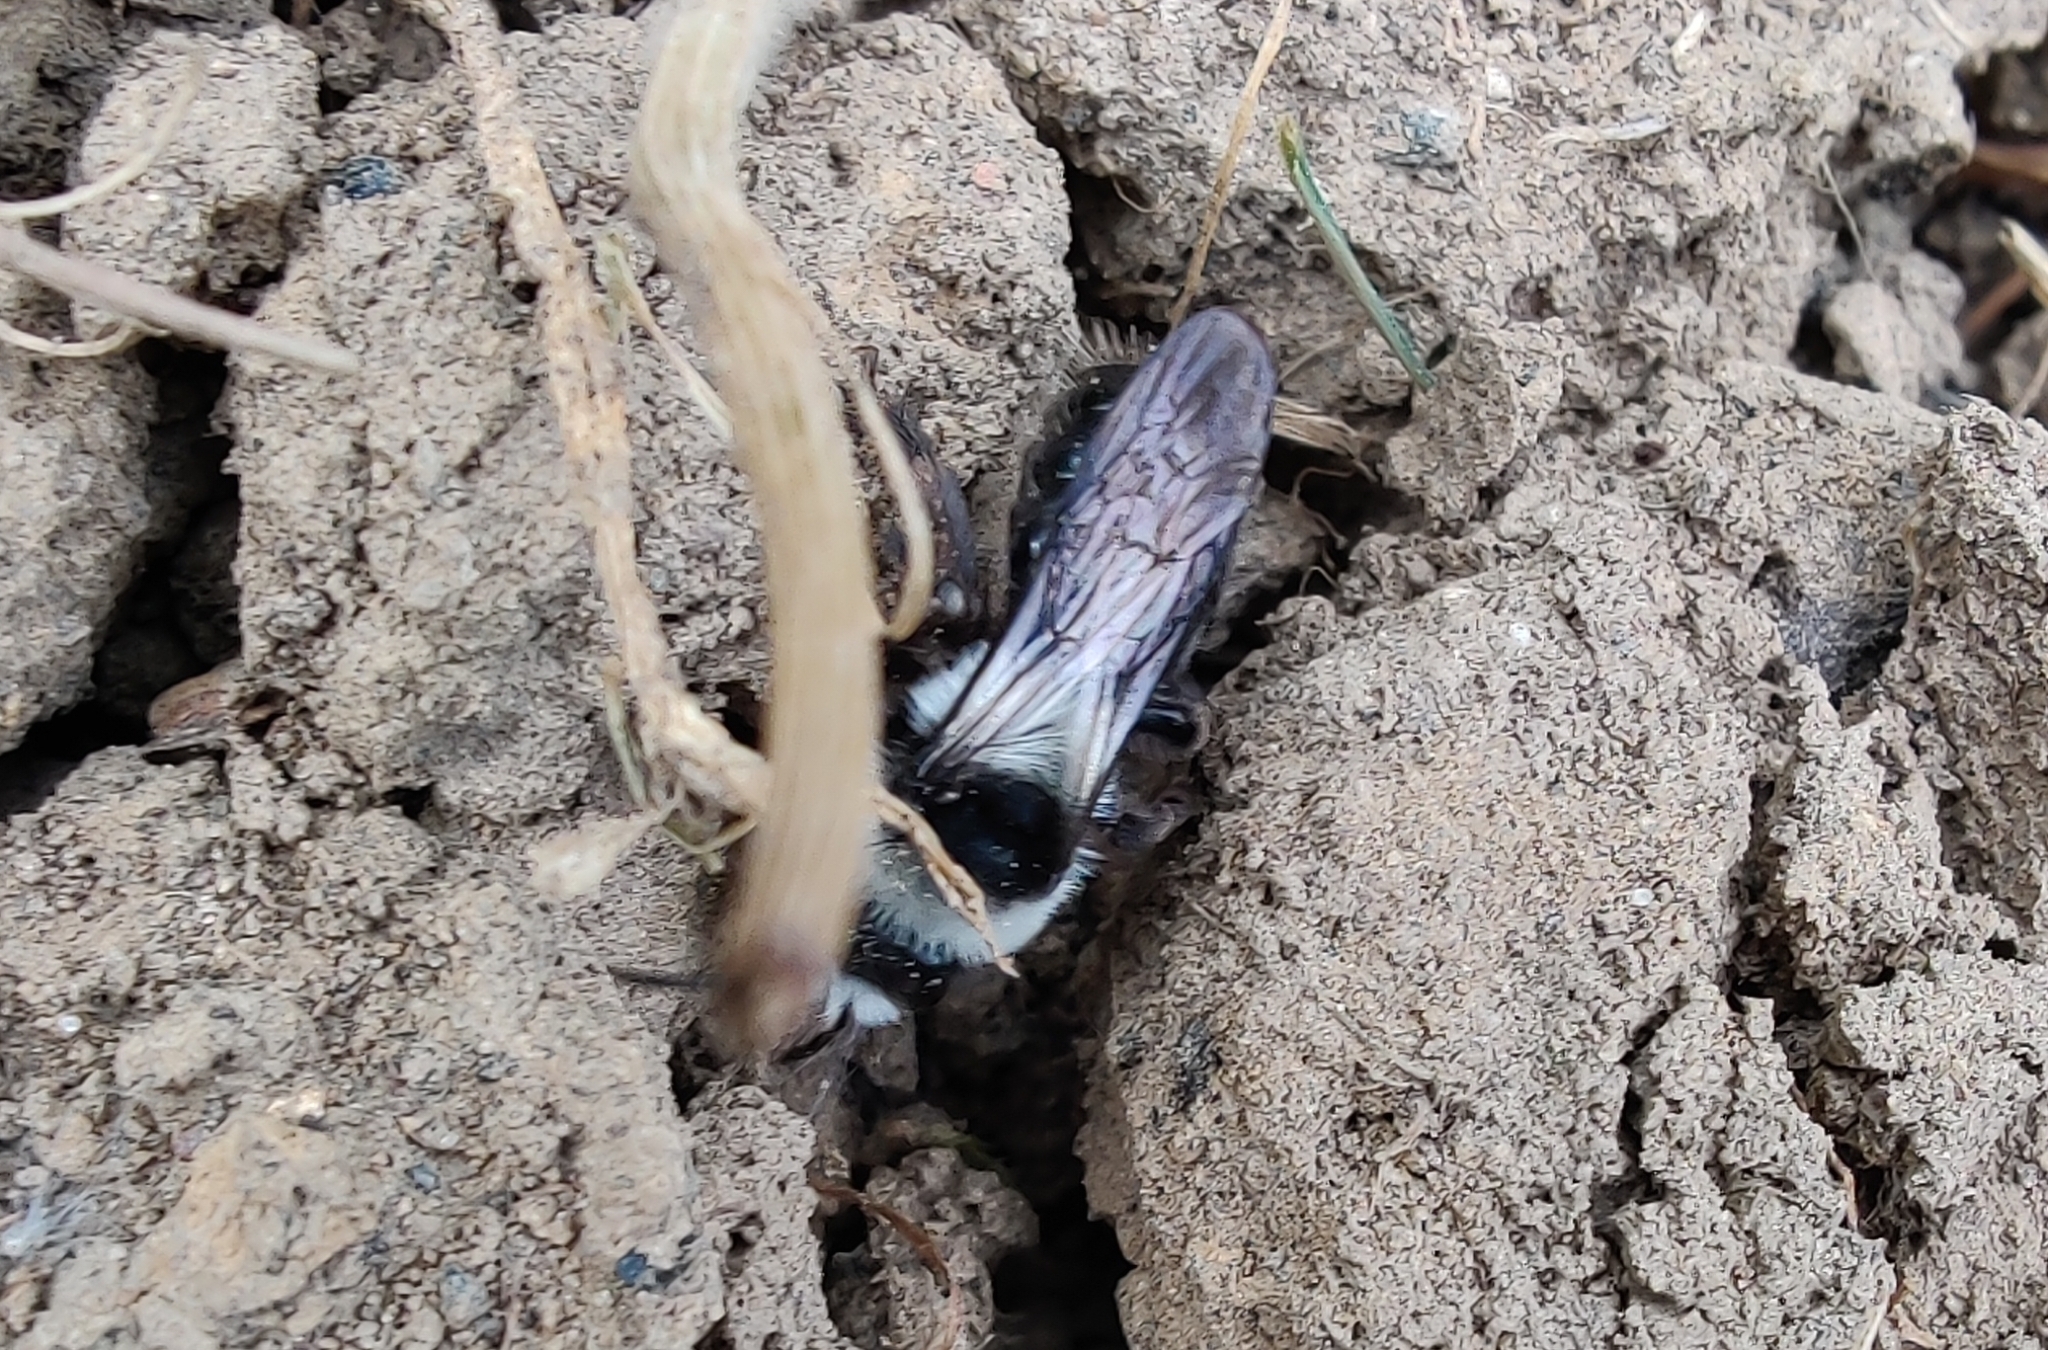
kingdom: Animalia
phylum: Arthropoda
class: Insecta
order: Hymenoptera
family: Andrenidae
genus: Andrena
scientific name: Andrena cineraria
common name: Ashy mining bee
